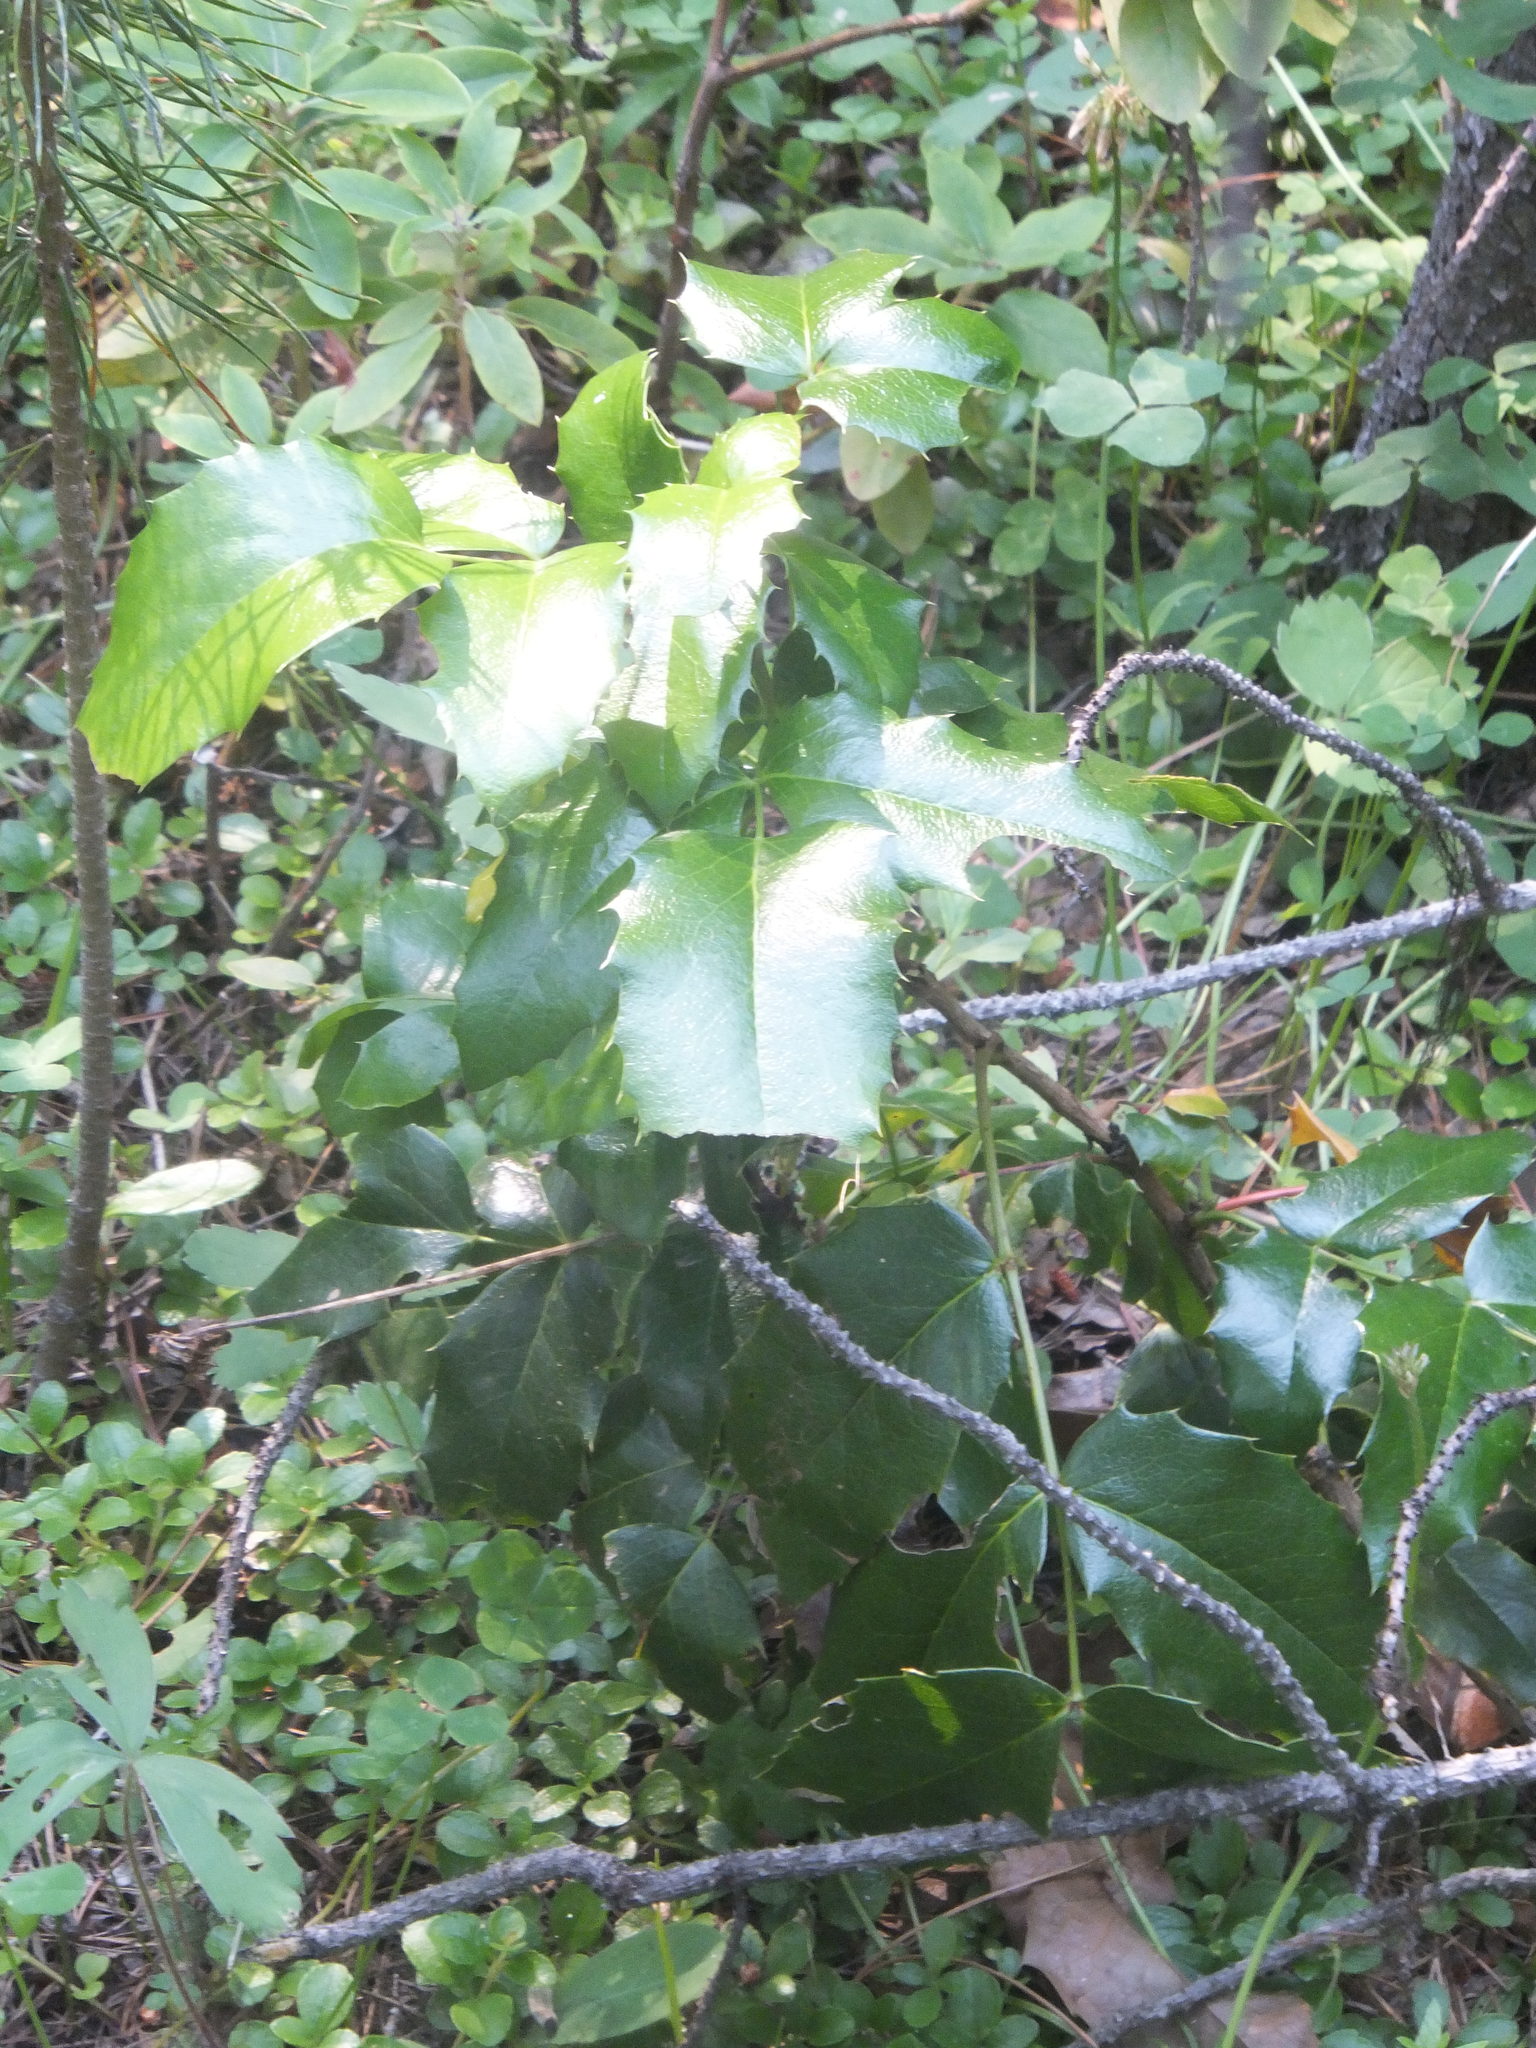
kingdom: Plantae
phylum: Tracheophyta
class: Magnoliopsida
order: Ranunculales
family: Berberidaceae
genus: Mahonia
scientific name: Mahonia aquifolium
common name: Oregon-grape
